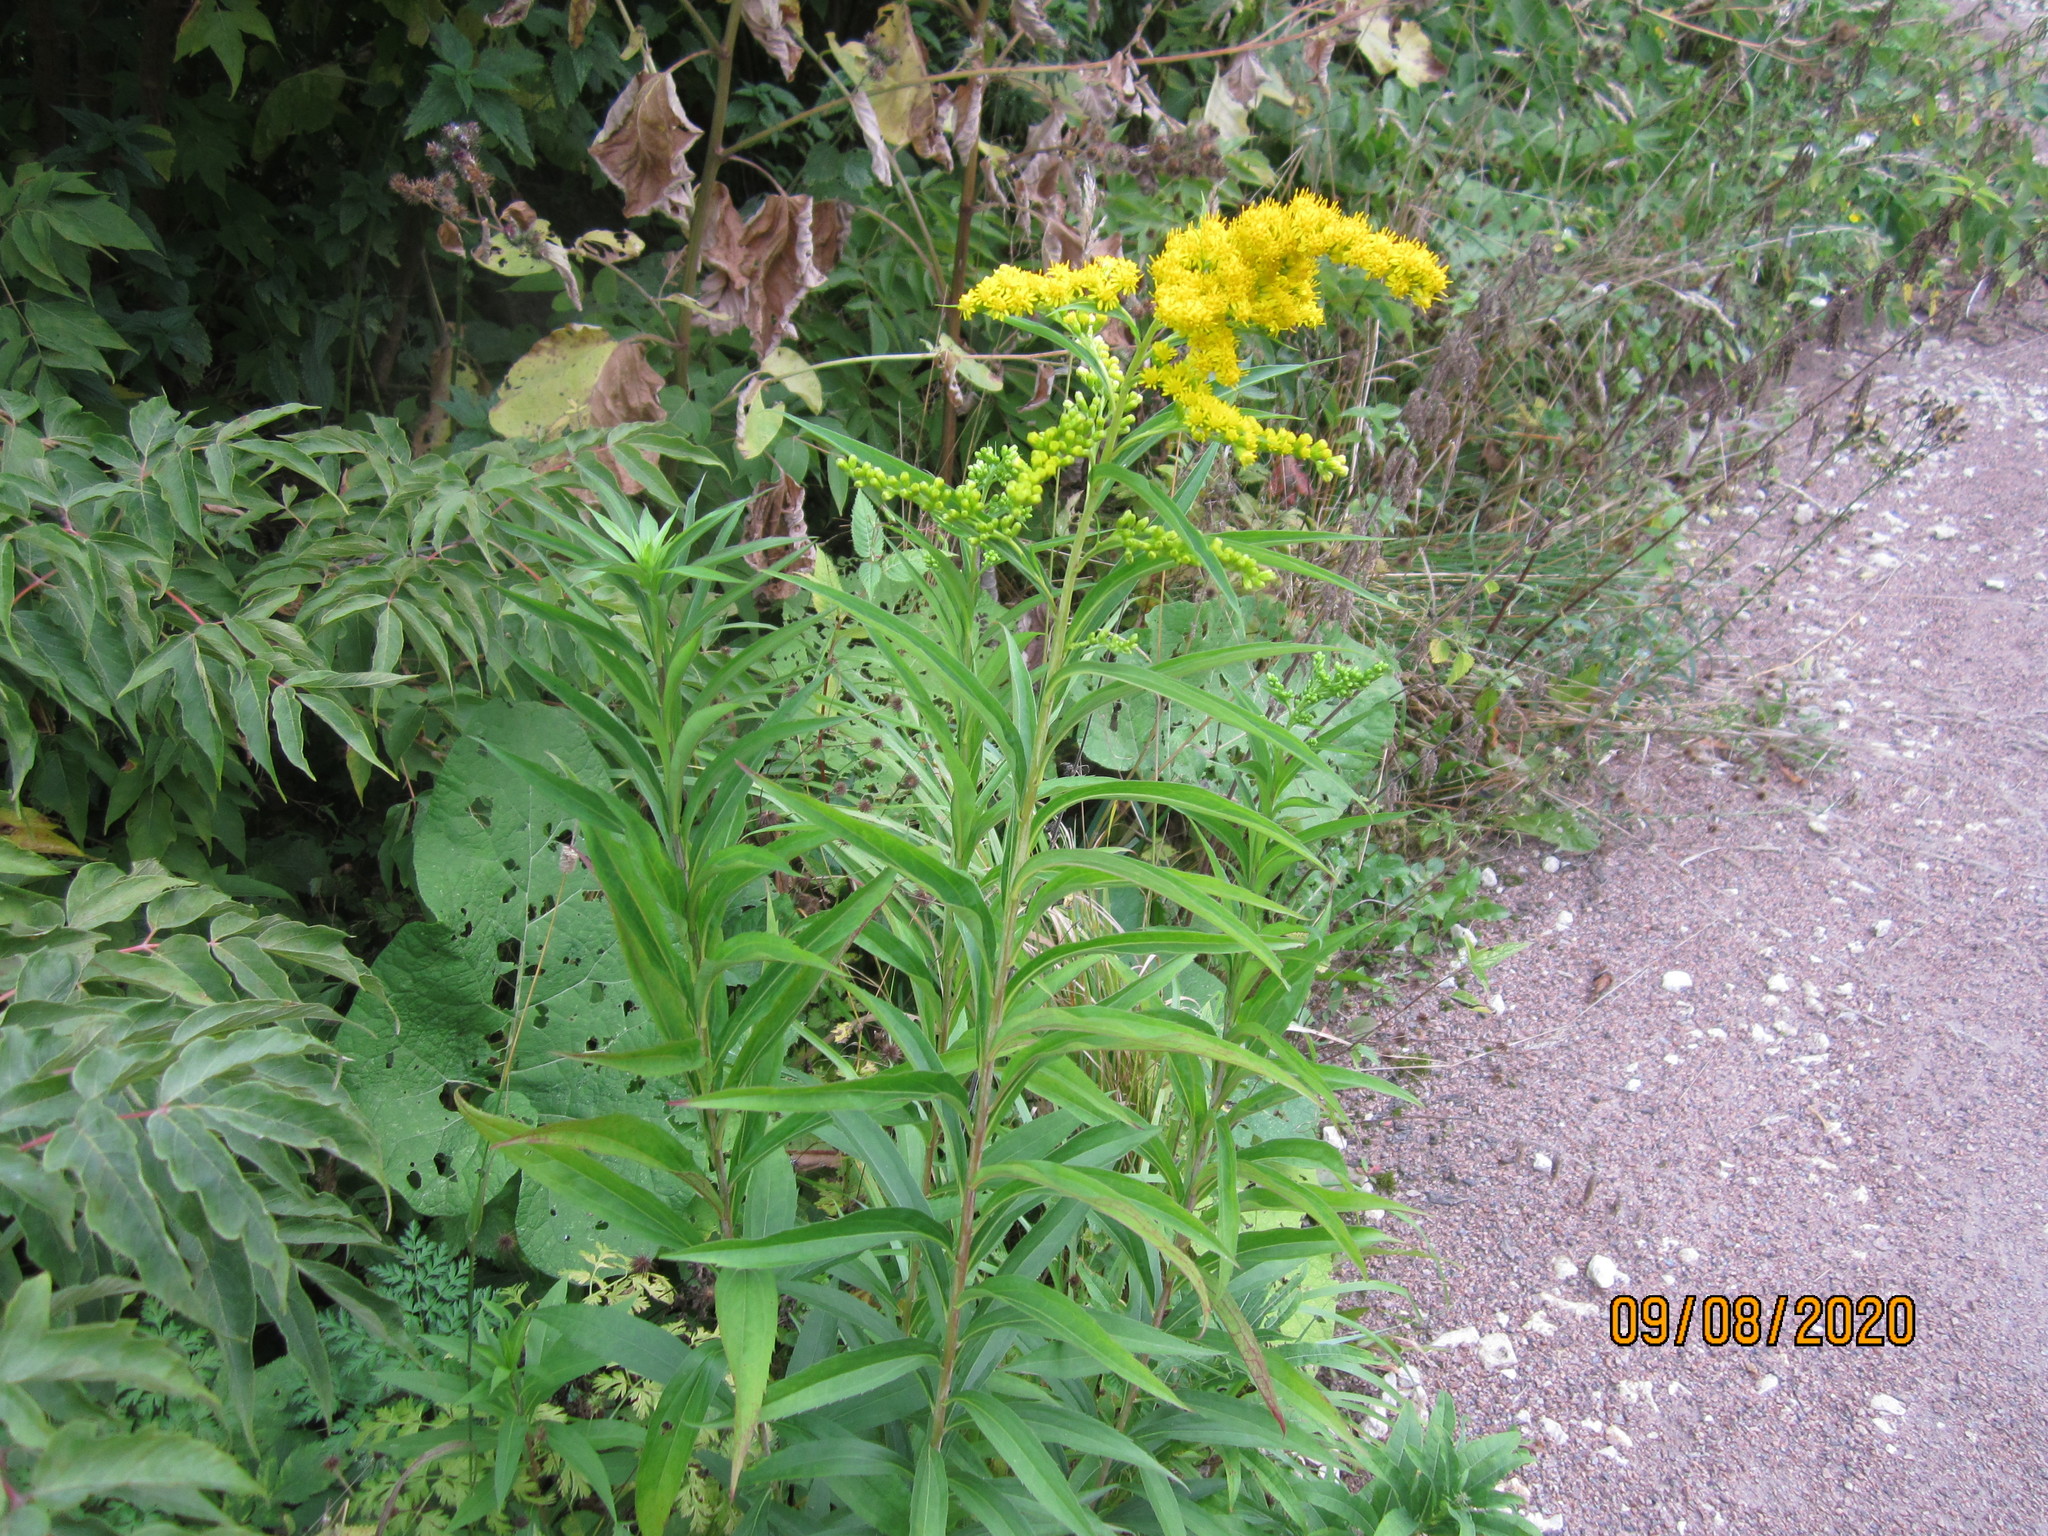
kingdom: Plantae
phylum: Tracheophyta
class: Magnoliopsida
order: Asterales
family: Asteraceae
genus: Solidago
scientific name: Solidago gigantea
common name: Giant goldenrod
